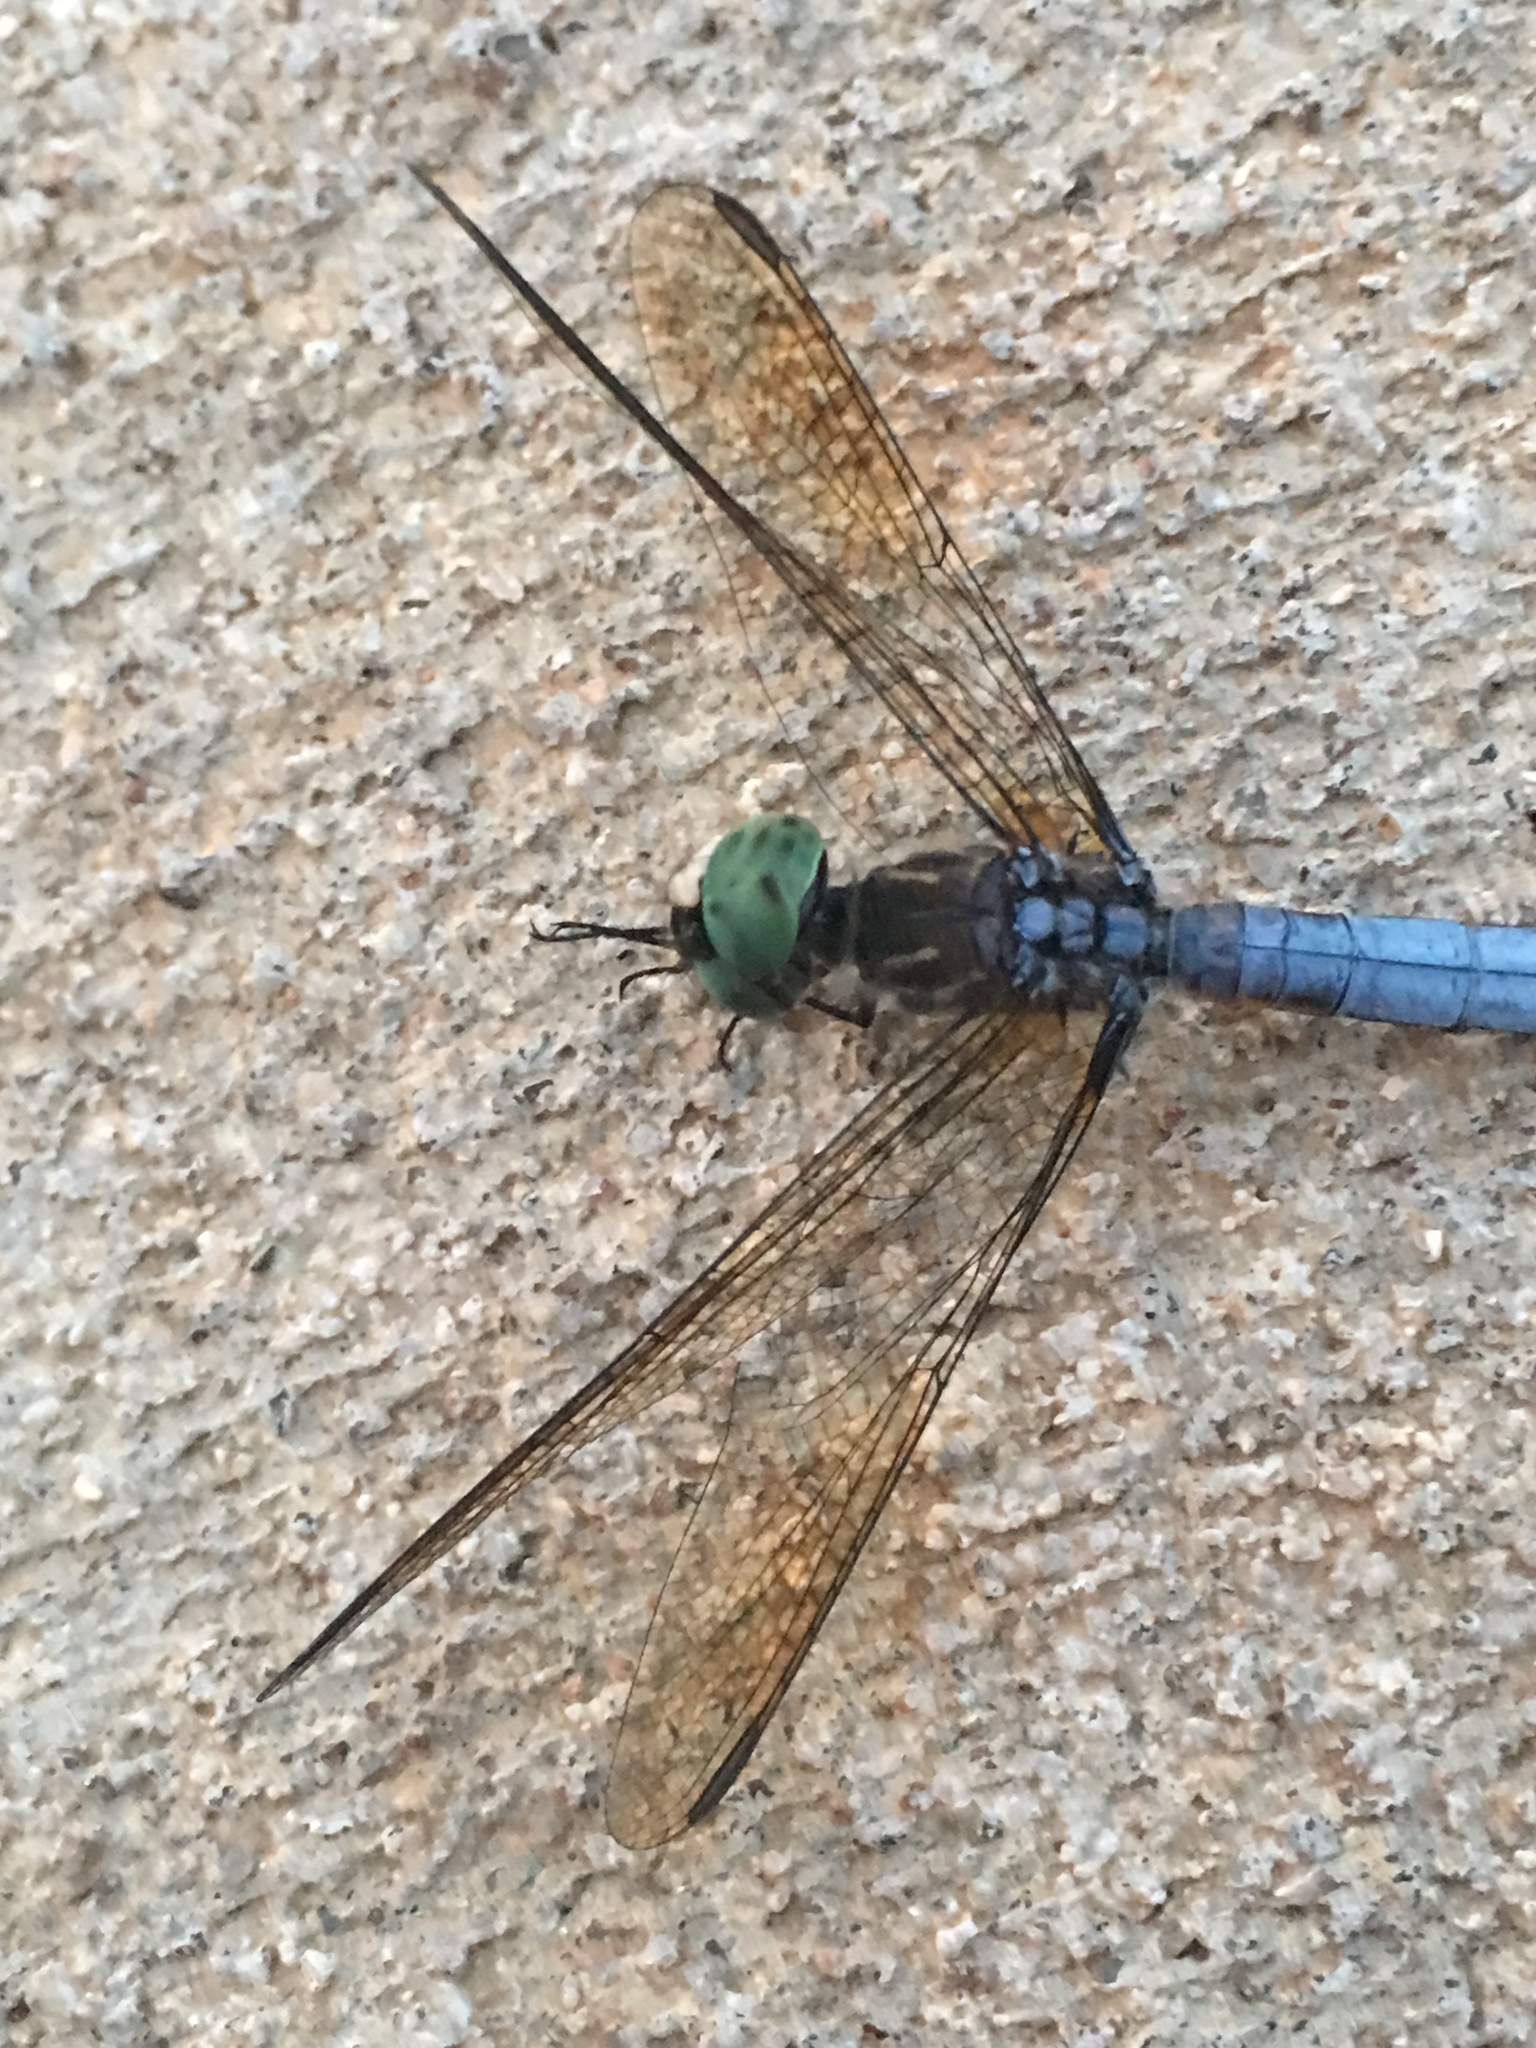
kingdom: Animalia
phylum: Arthropoda
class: Insecta
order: Odonata
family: Libellulidae
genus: Pachydiplax
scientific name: Pachydiplax longipennis
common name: Blue dasher
